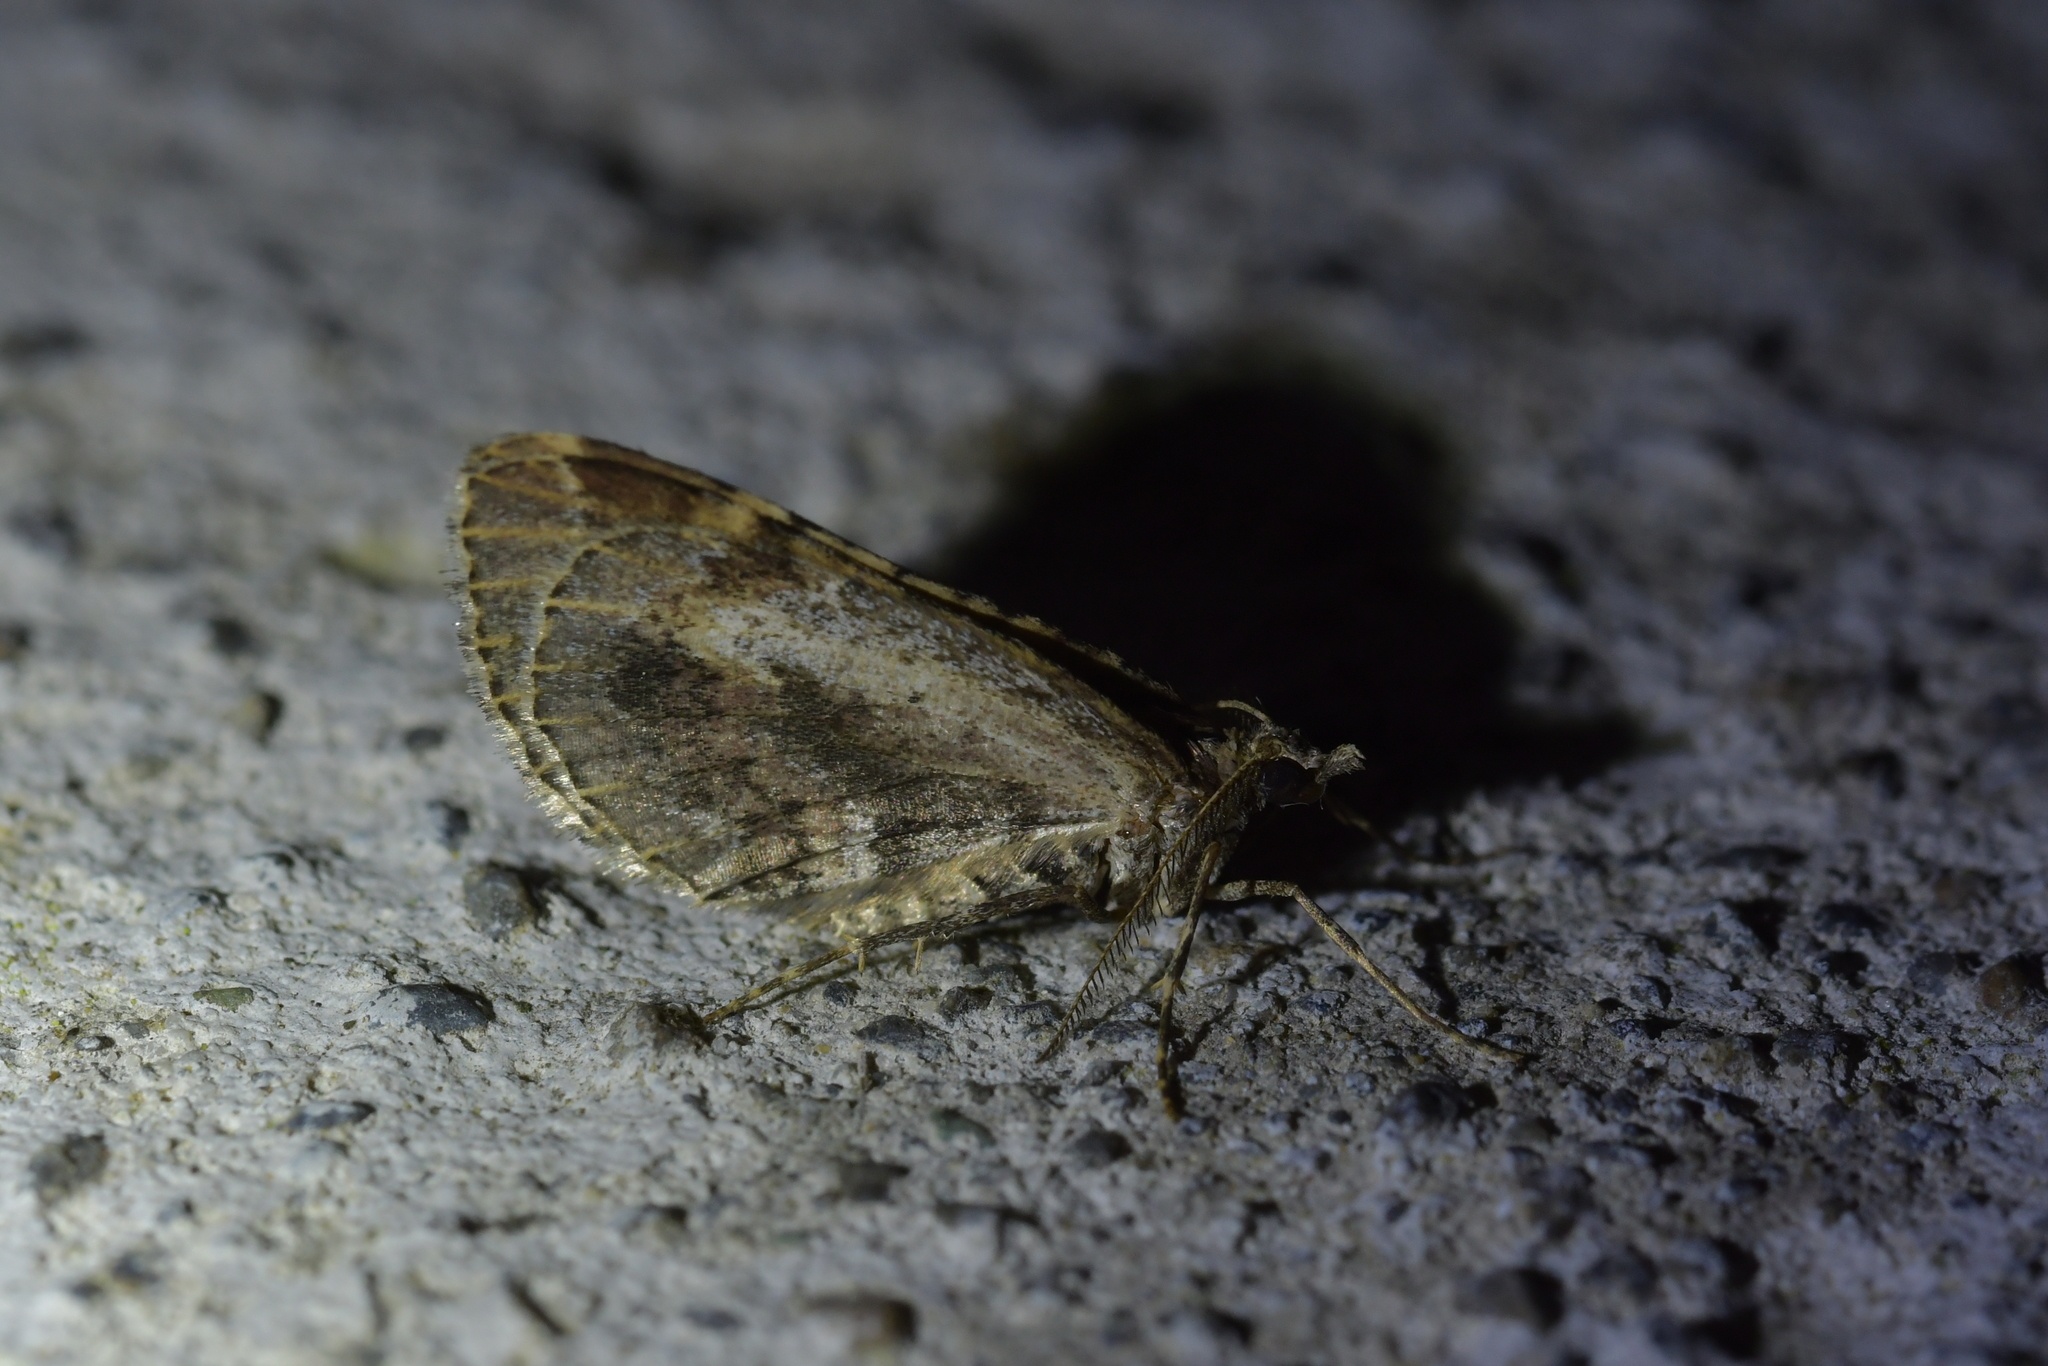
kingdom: Animalia
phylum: Arthropoda
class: Insecta
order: Lepidoptera
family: Geometridae
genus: Asaphodes
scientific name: Asaphodes aegrota
